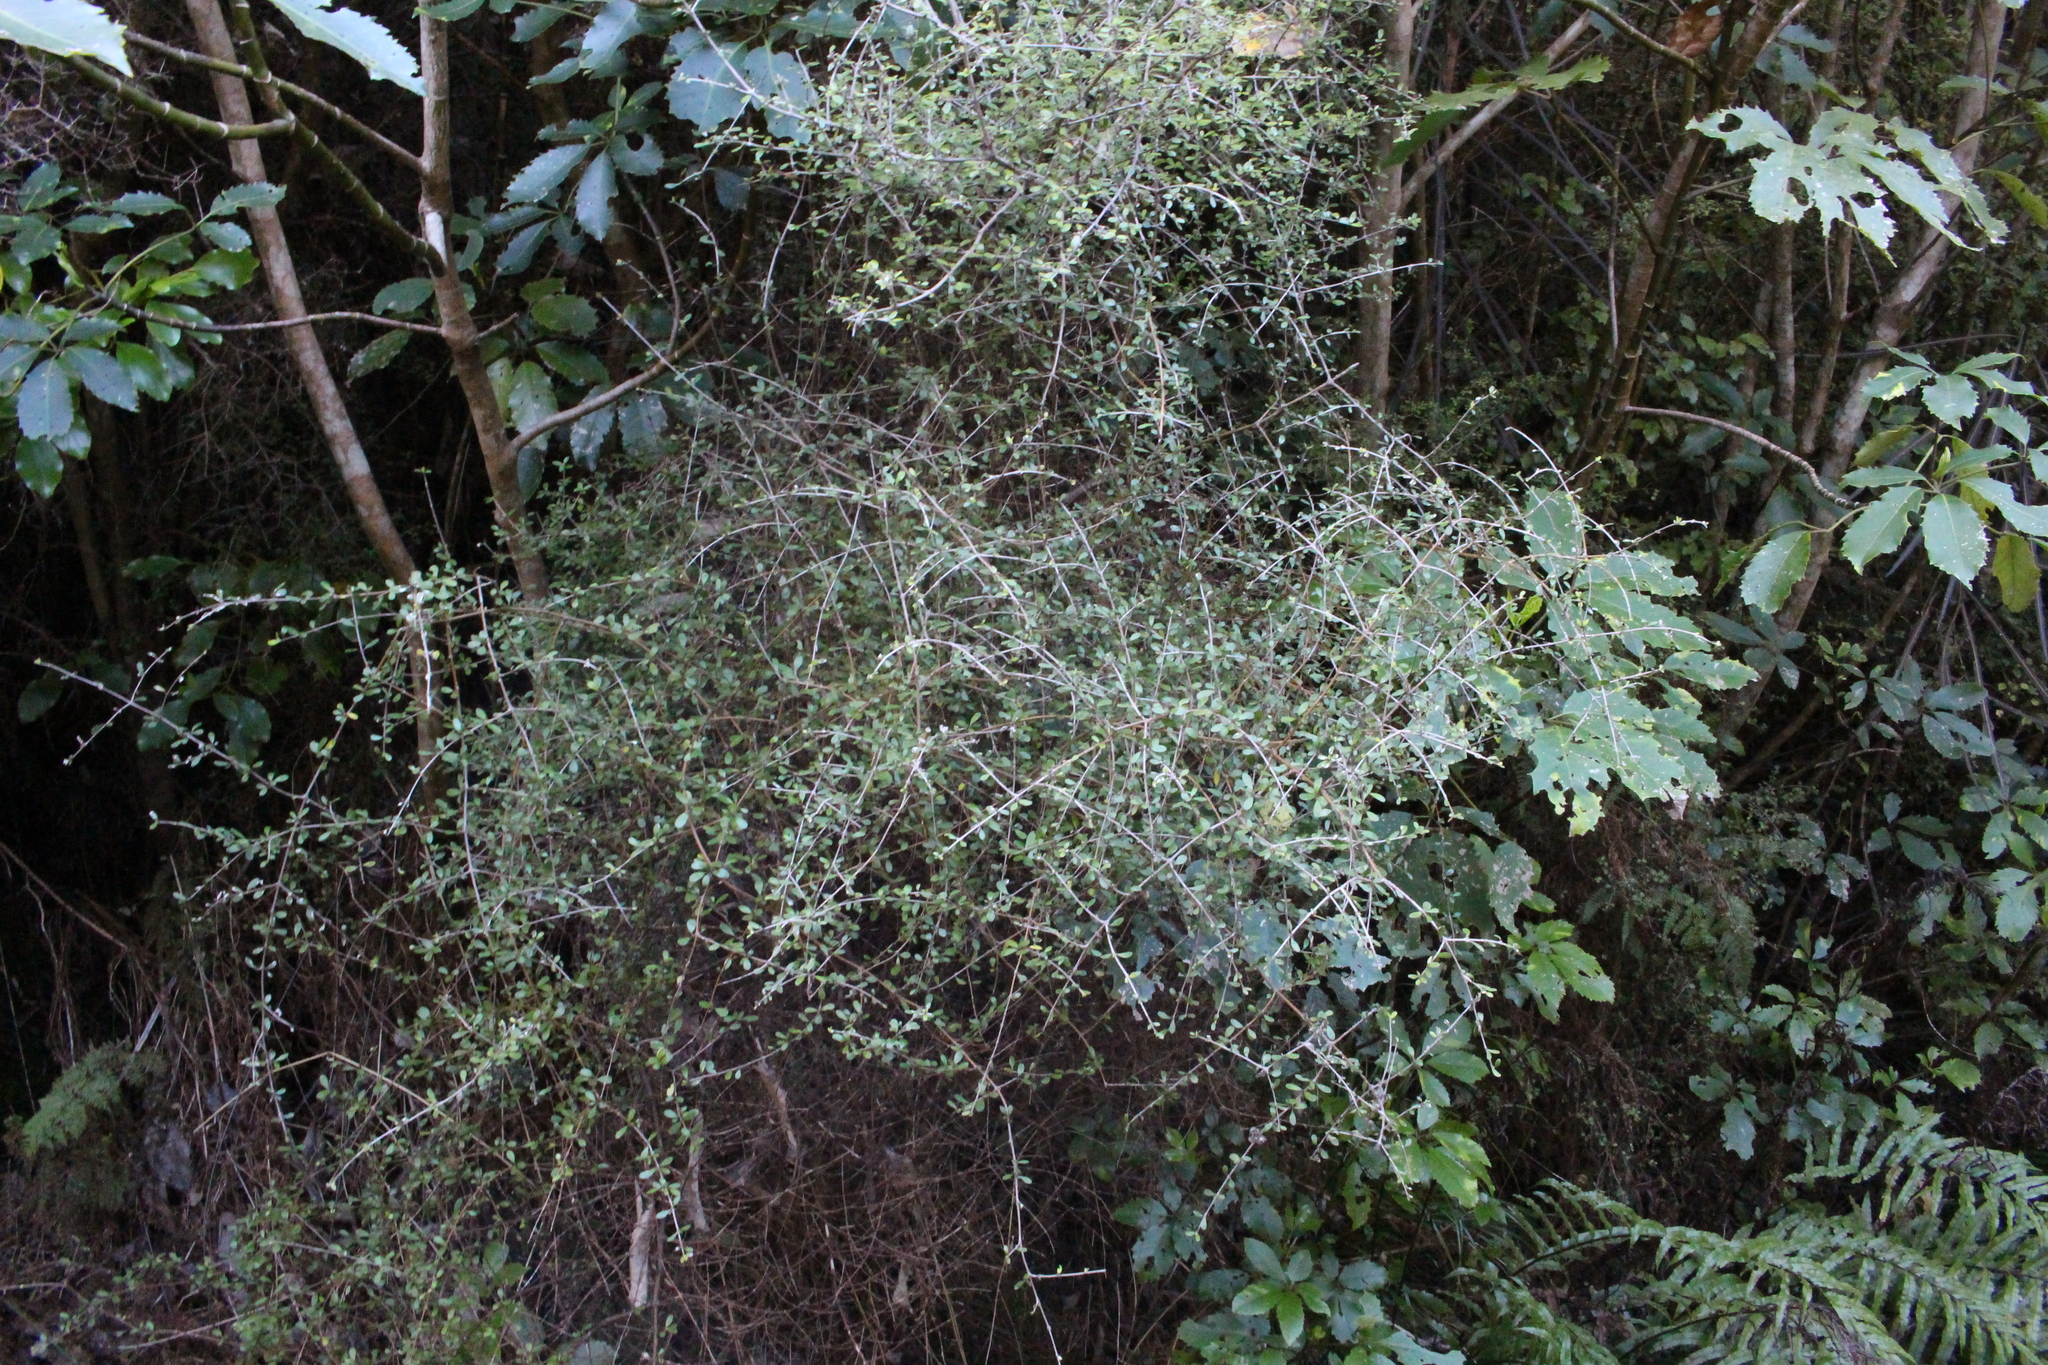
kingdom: Plantae
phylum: Tracheophyta
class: Magnoliopsida
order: Gentianales
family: Rubiaceae
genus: Coprosma
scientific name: Coprosma rigida
